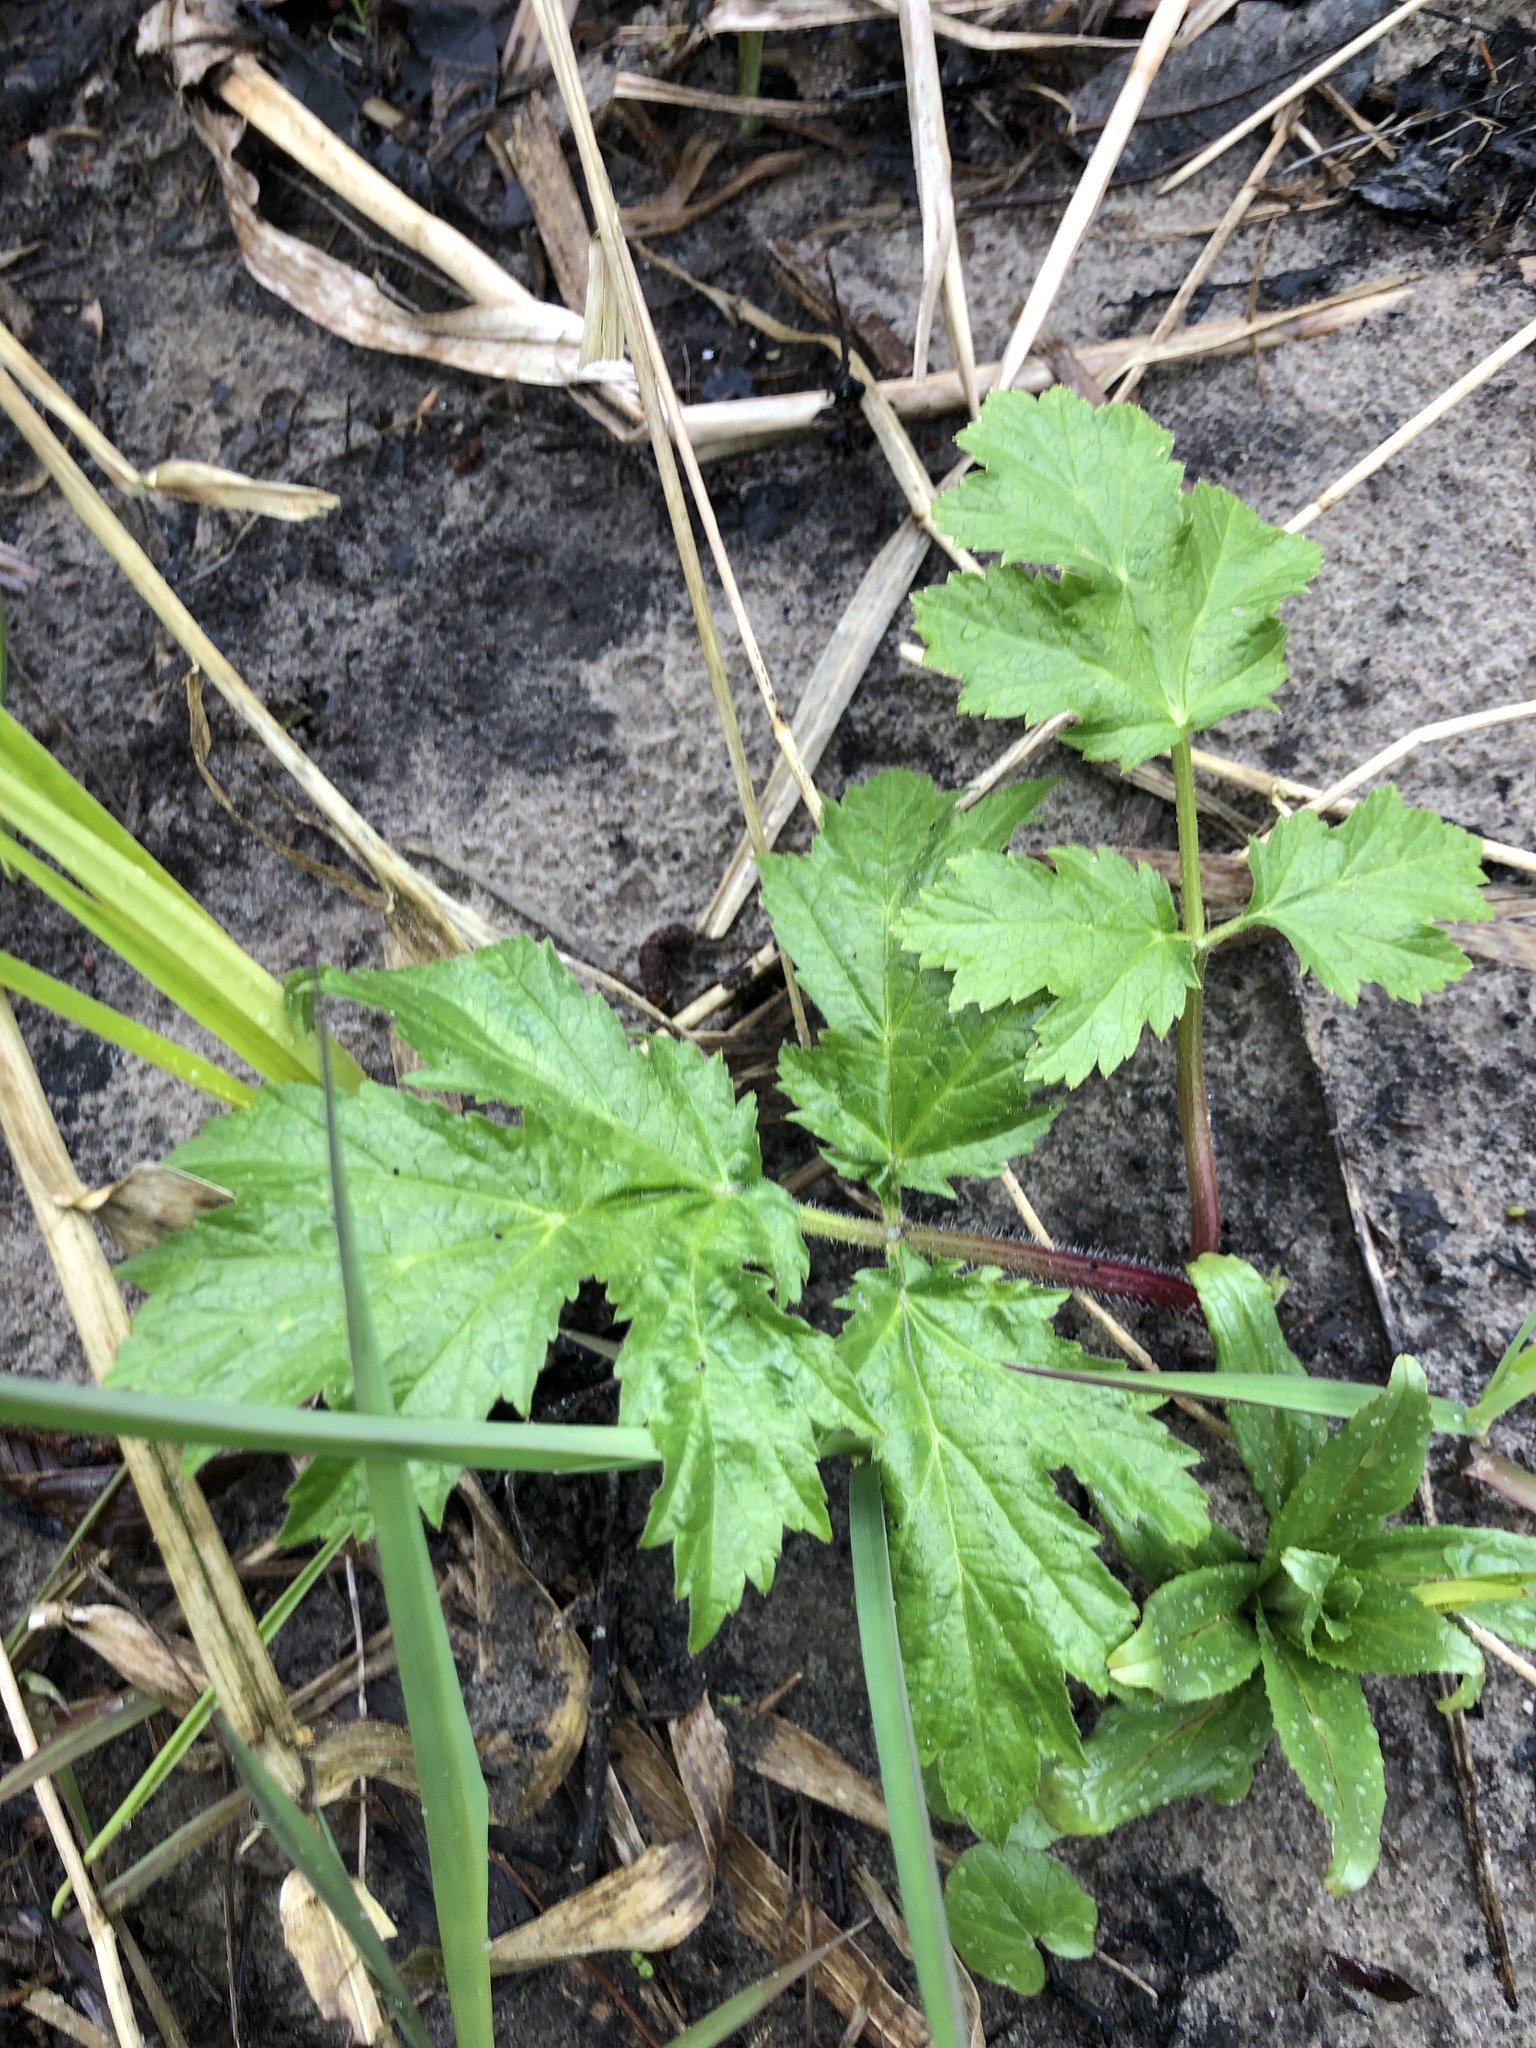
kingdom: Plantae
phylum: Tracheophyta
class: Magnoliopsida
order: Apiales
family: Apiaceae
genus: Heracleum
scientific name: Heracleum mantegazzianum
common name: Giant hogweed
